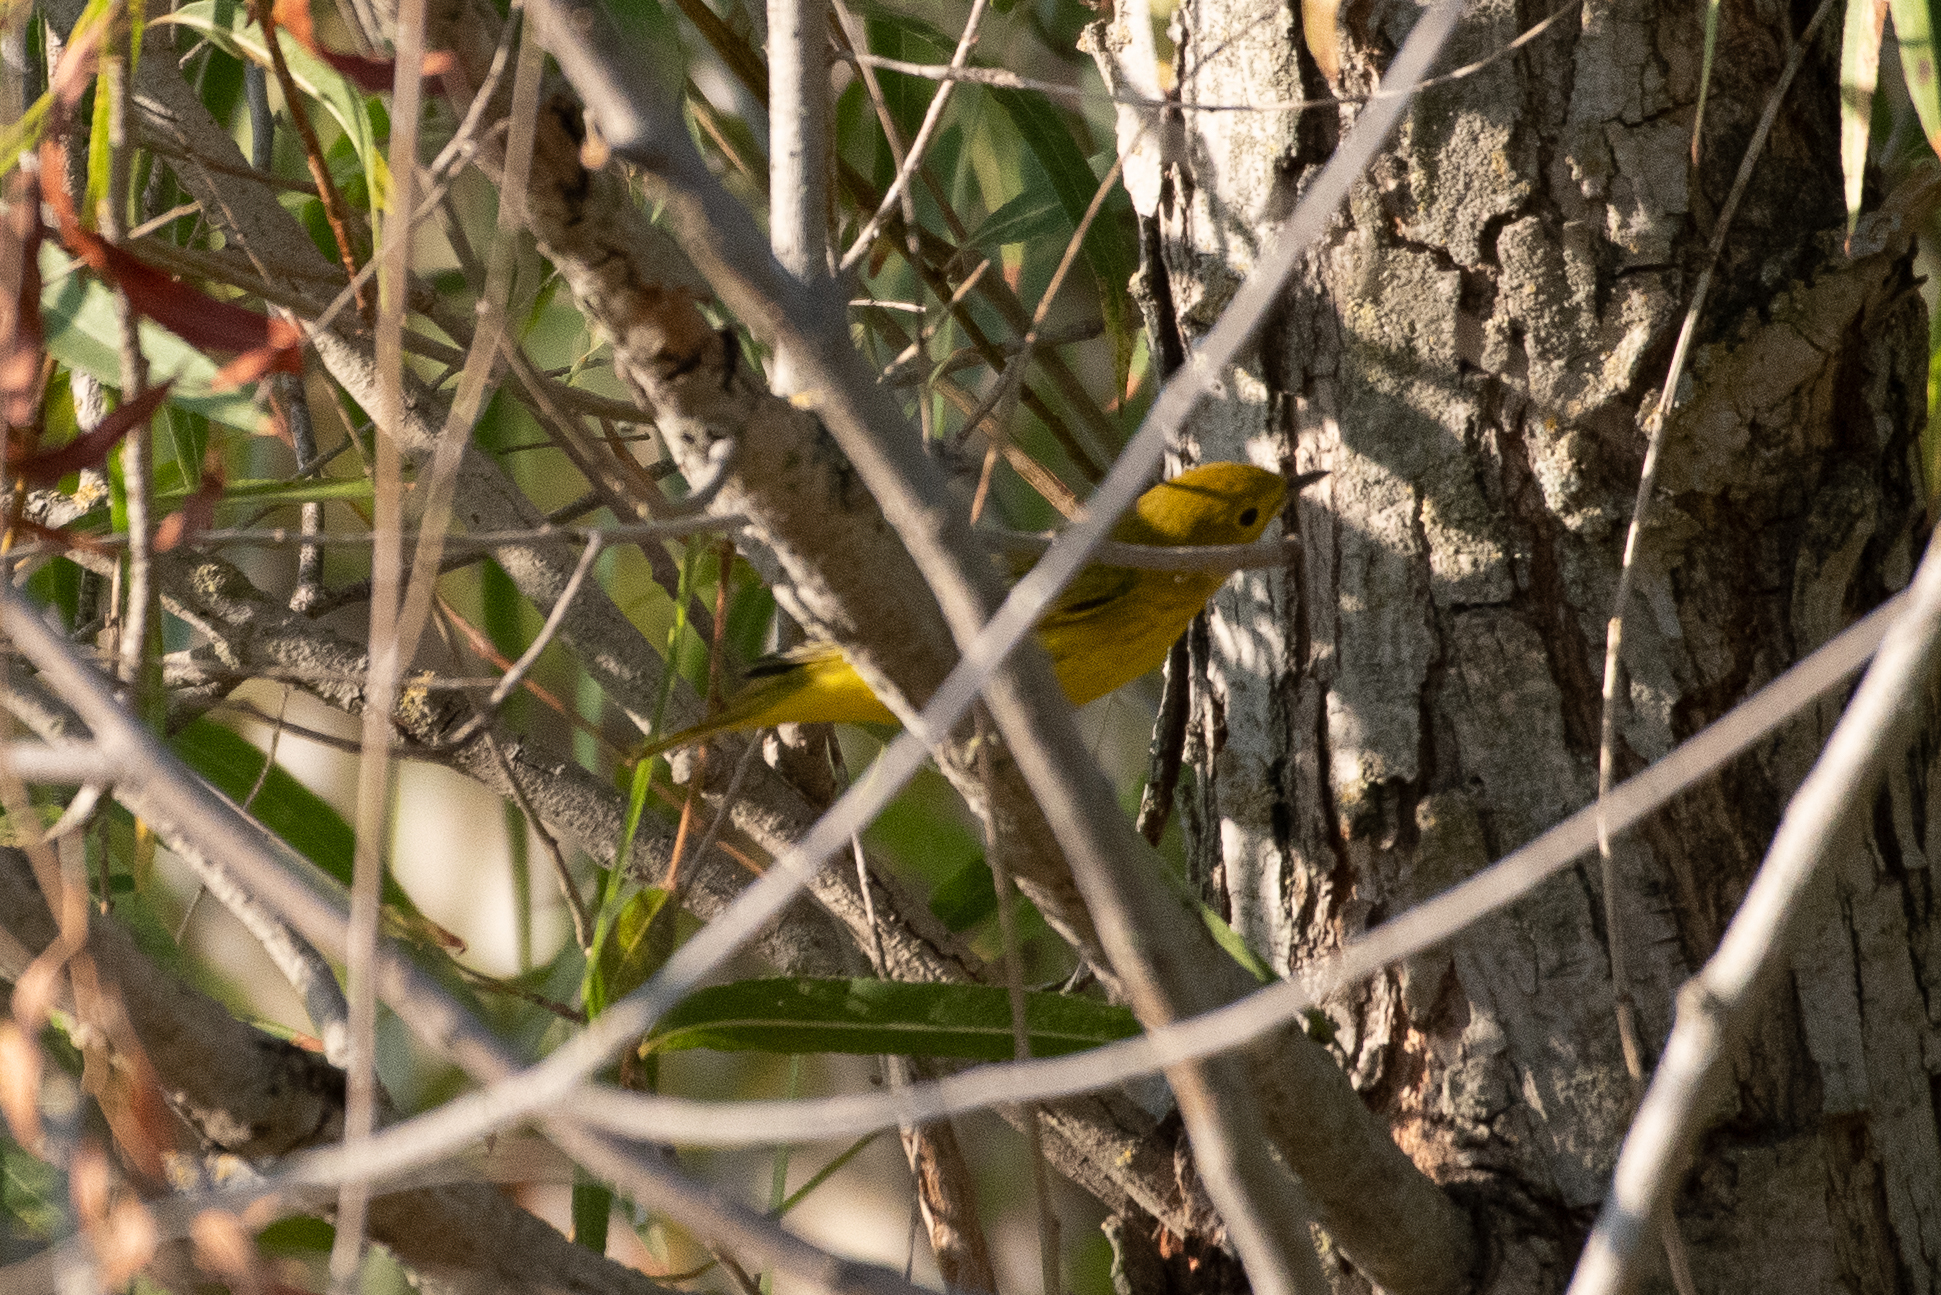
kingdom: Animalia
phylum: Chordata
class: Aves
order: Passeriformes
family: Parulidae
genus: Setophaga
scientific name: Setophaga petechia
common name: Yellow warbler
